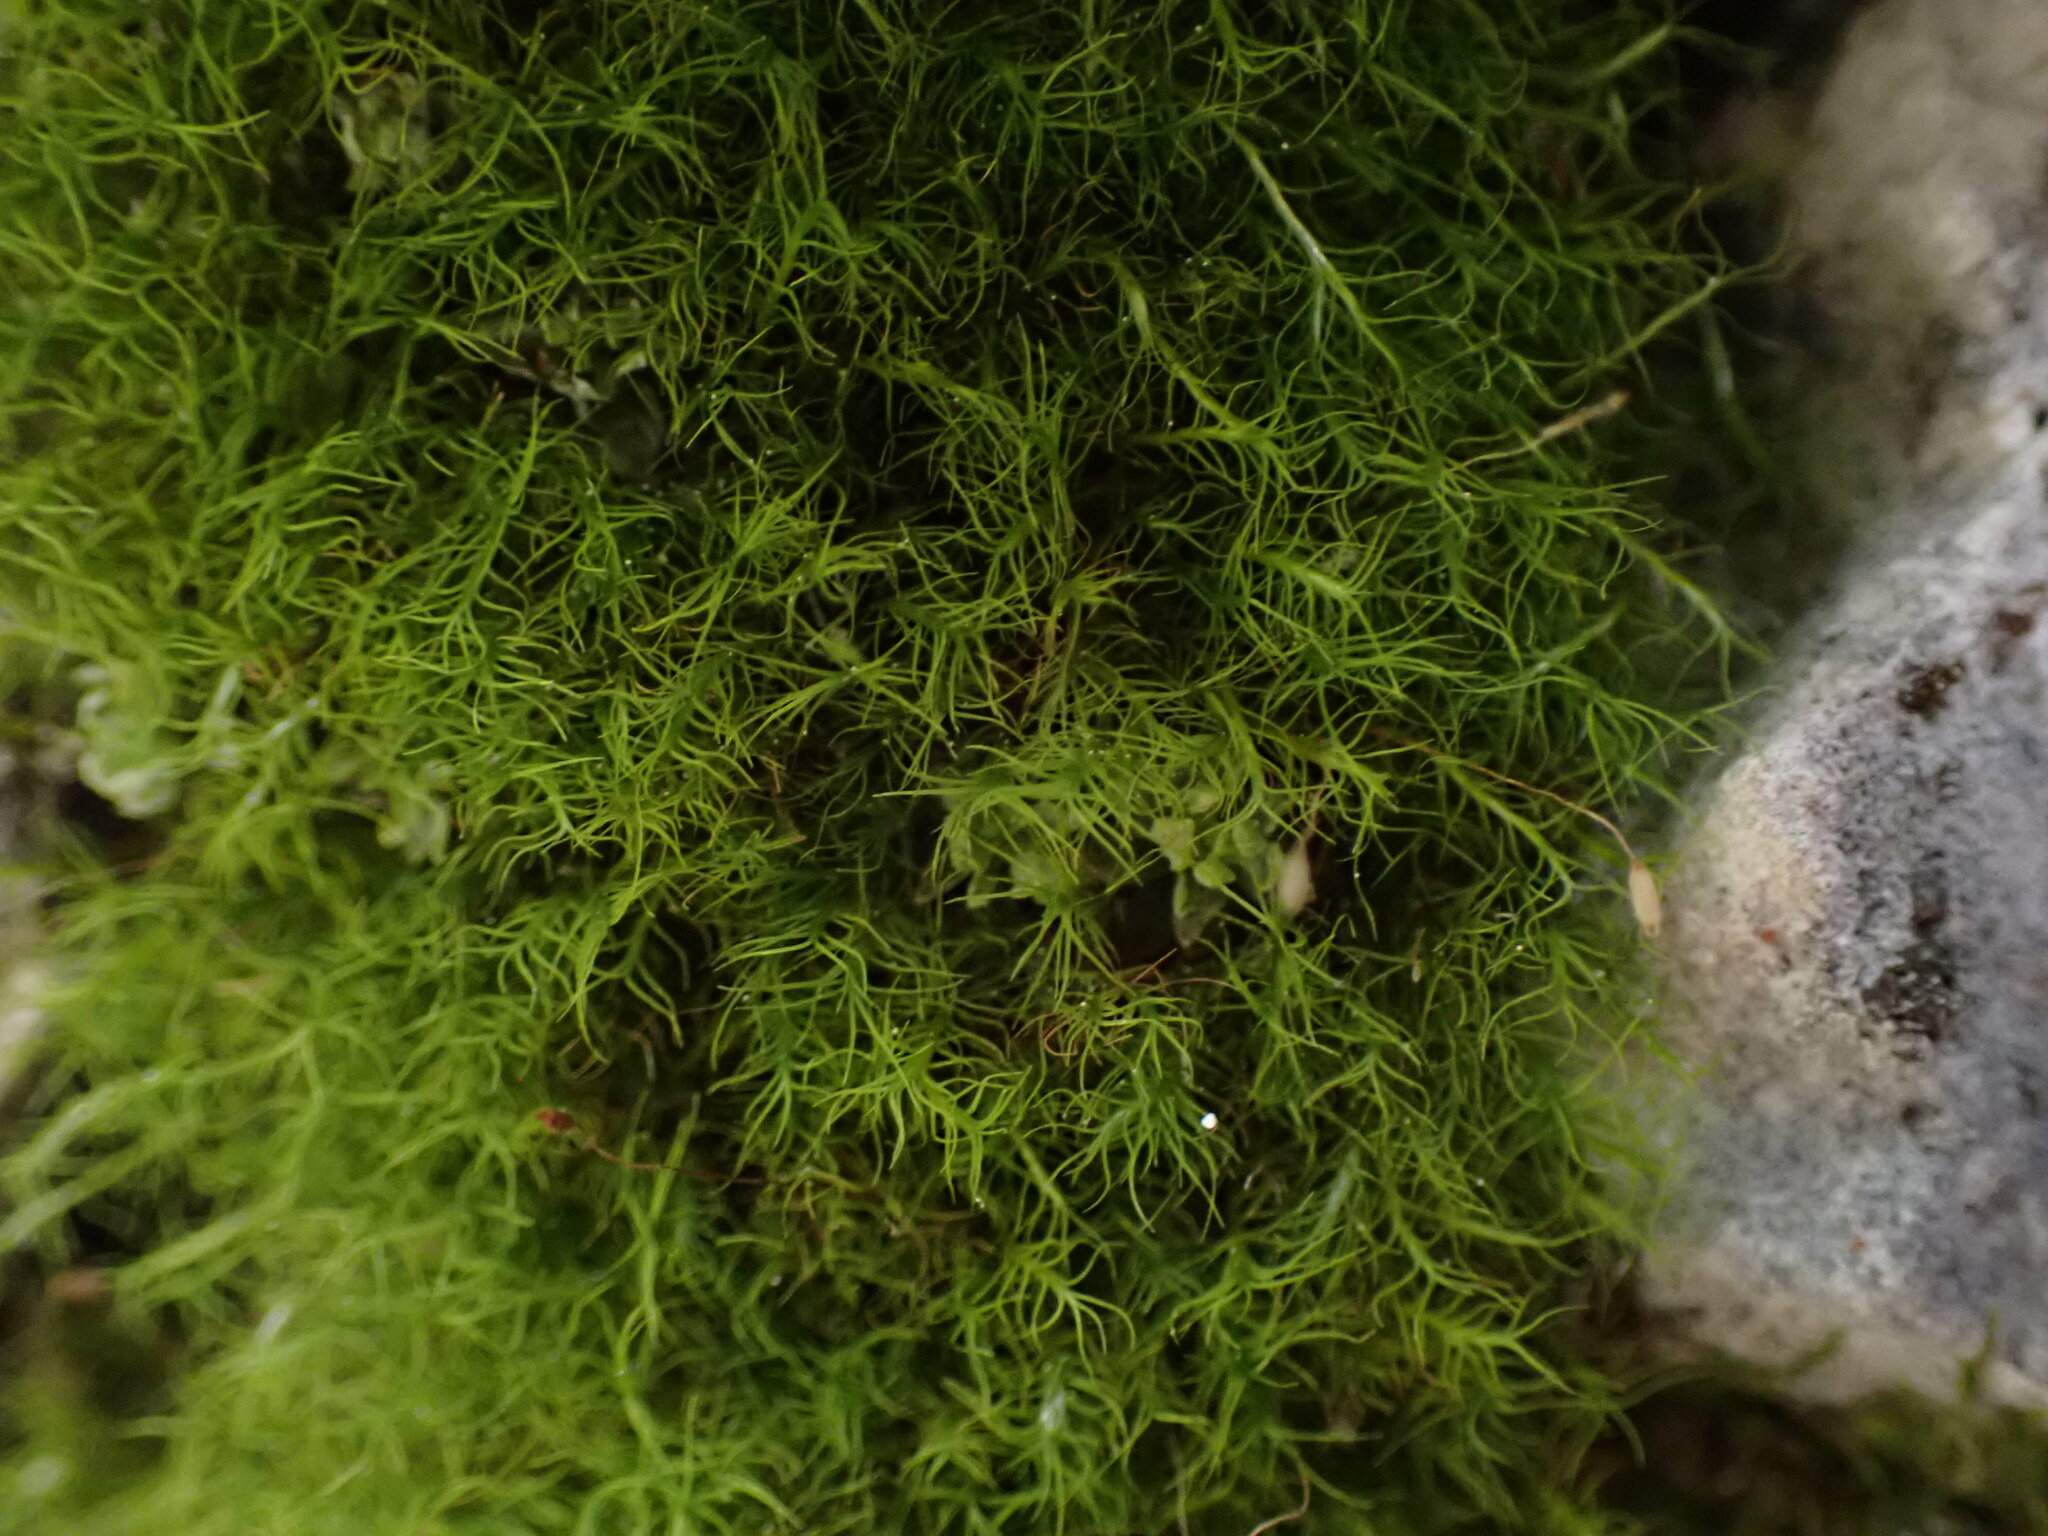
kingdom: Plantae
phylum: Bryophyta
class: Bryopsida
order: Scouleriales
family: Distichiaceae
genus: Distichium
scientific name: Distichium capillaceum
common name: Erect-fruited iris moss
